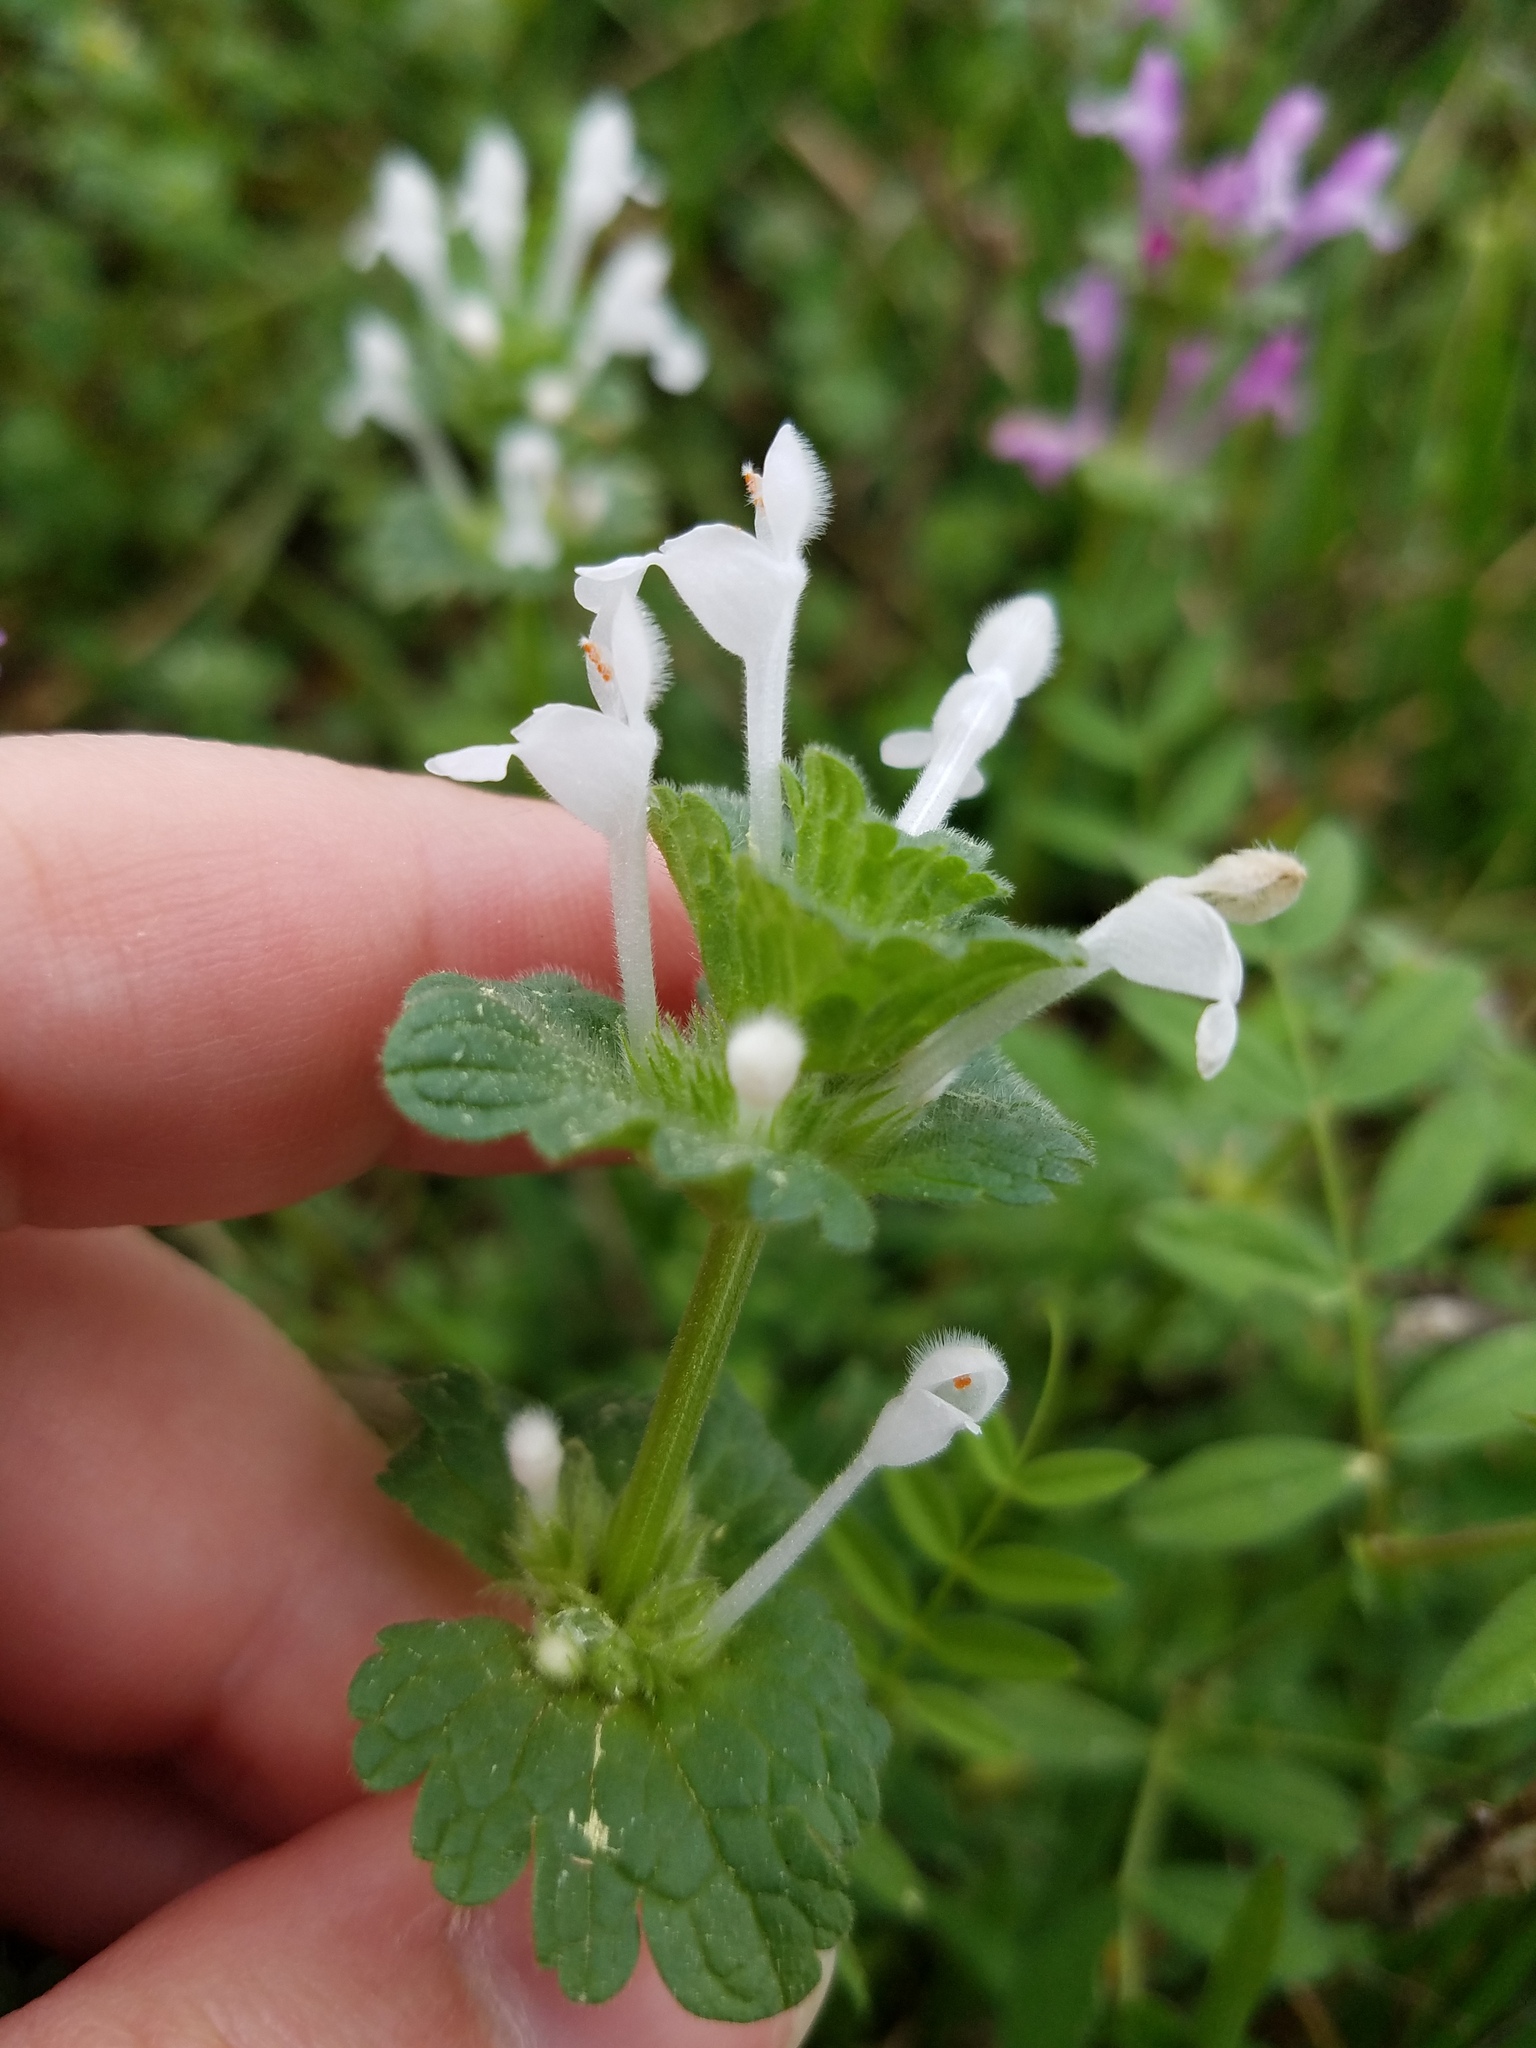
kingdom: Plantae
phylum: Tracheophyta
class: Magnoliopsida
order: Lamiales
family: Lamiaceae
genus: Lamium
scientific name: Lamium amplexicaule
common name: Henbit dead-nettle
